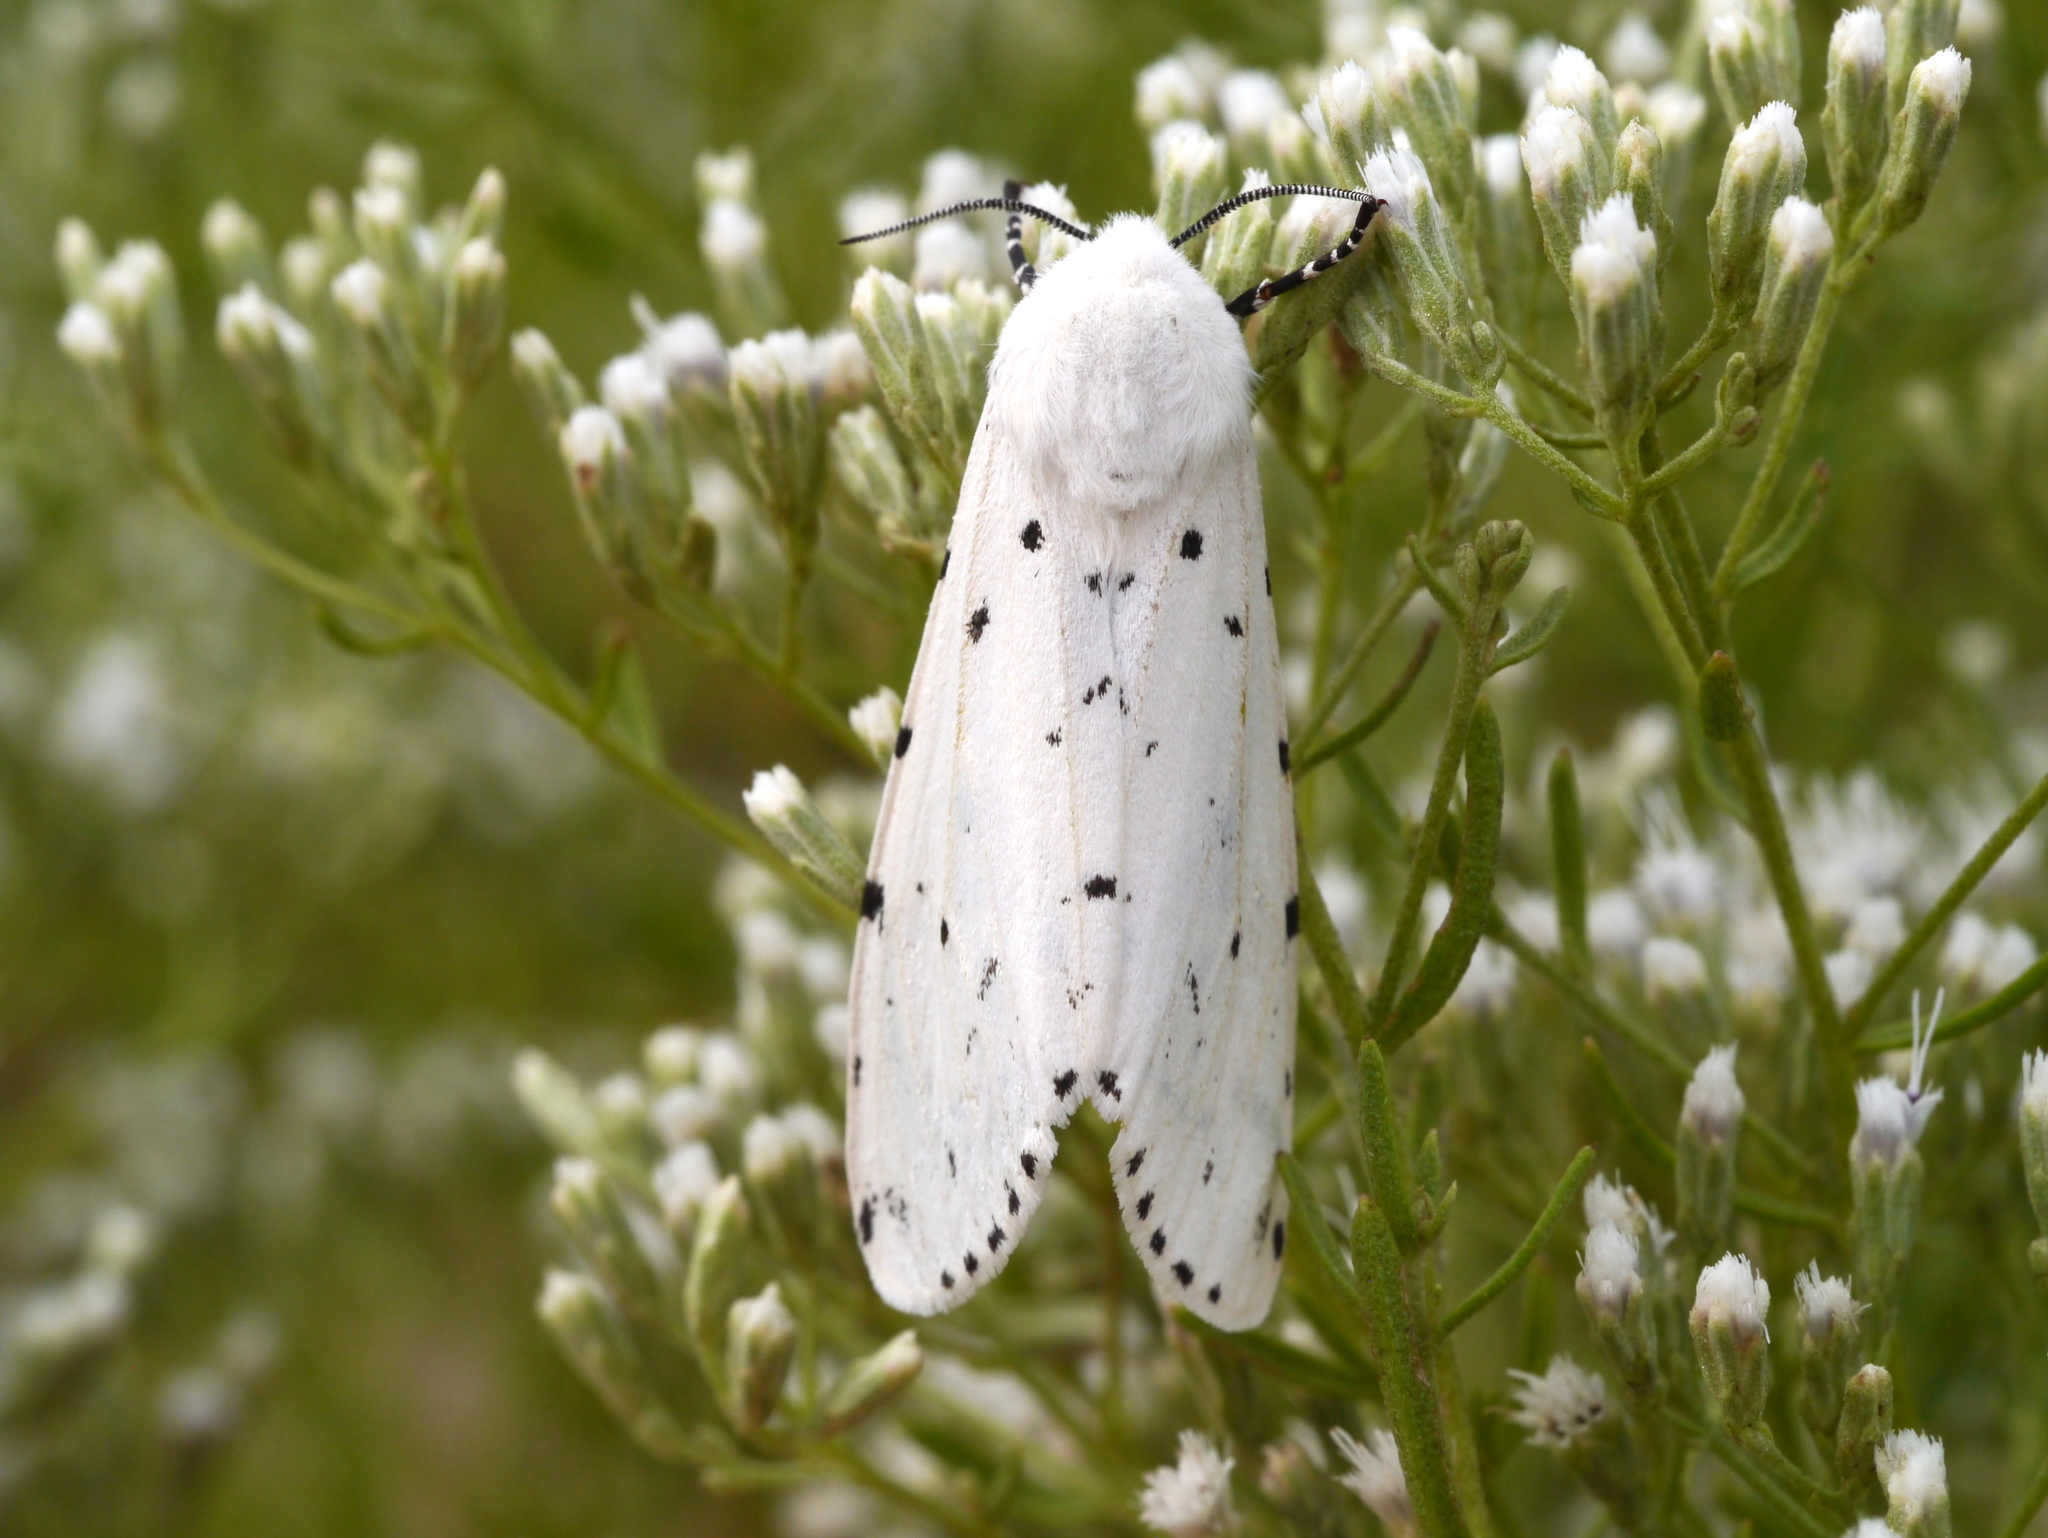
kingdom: Animalia
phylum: Arthropoda
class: Insecta
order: Lepidoptera
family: Erebidae
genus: Estigmene
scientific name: Estigmene acrea
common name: Salt marsh moth
